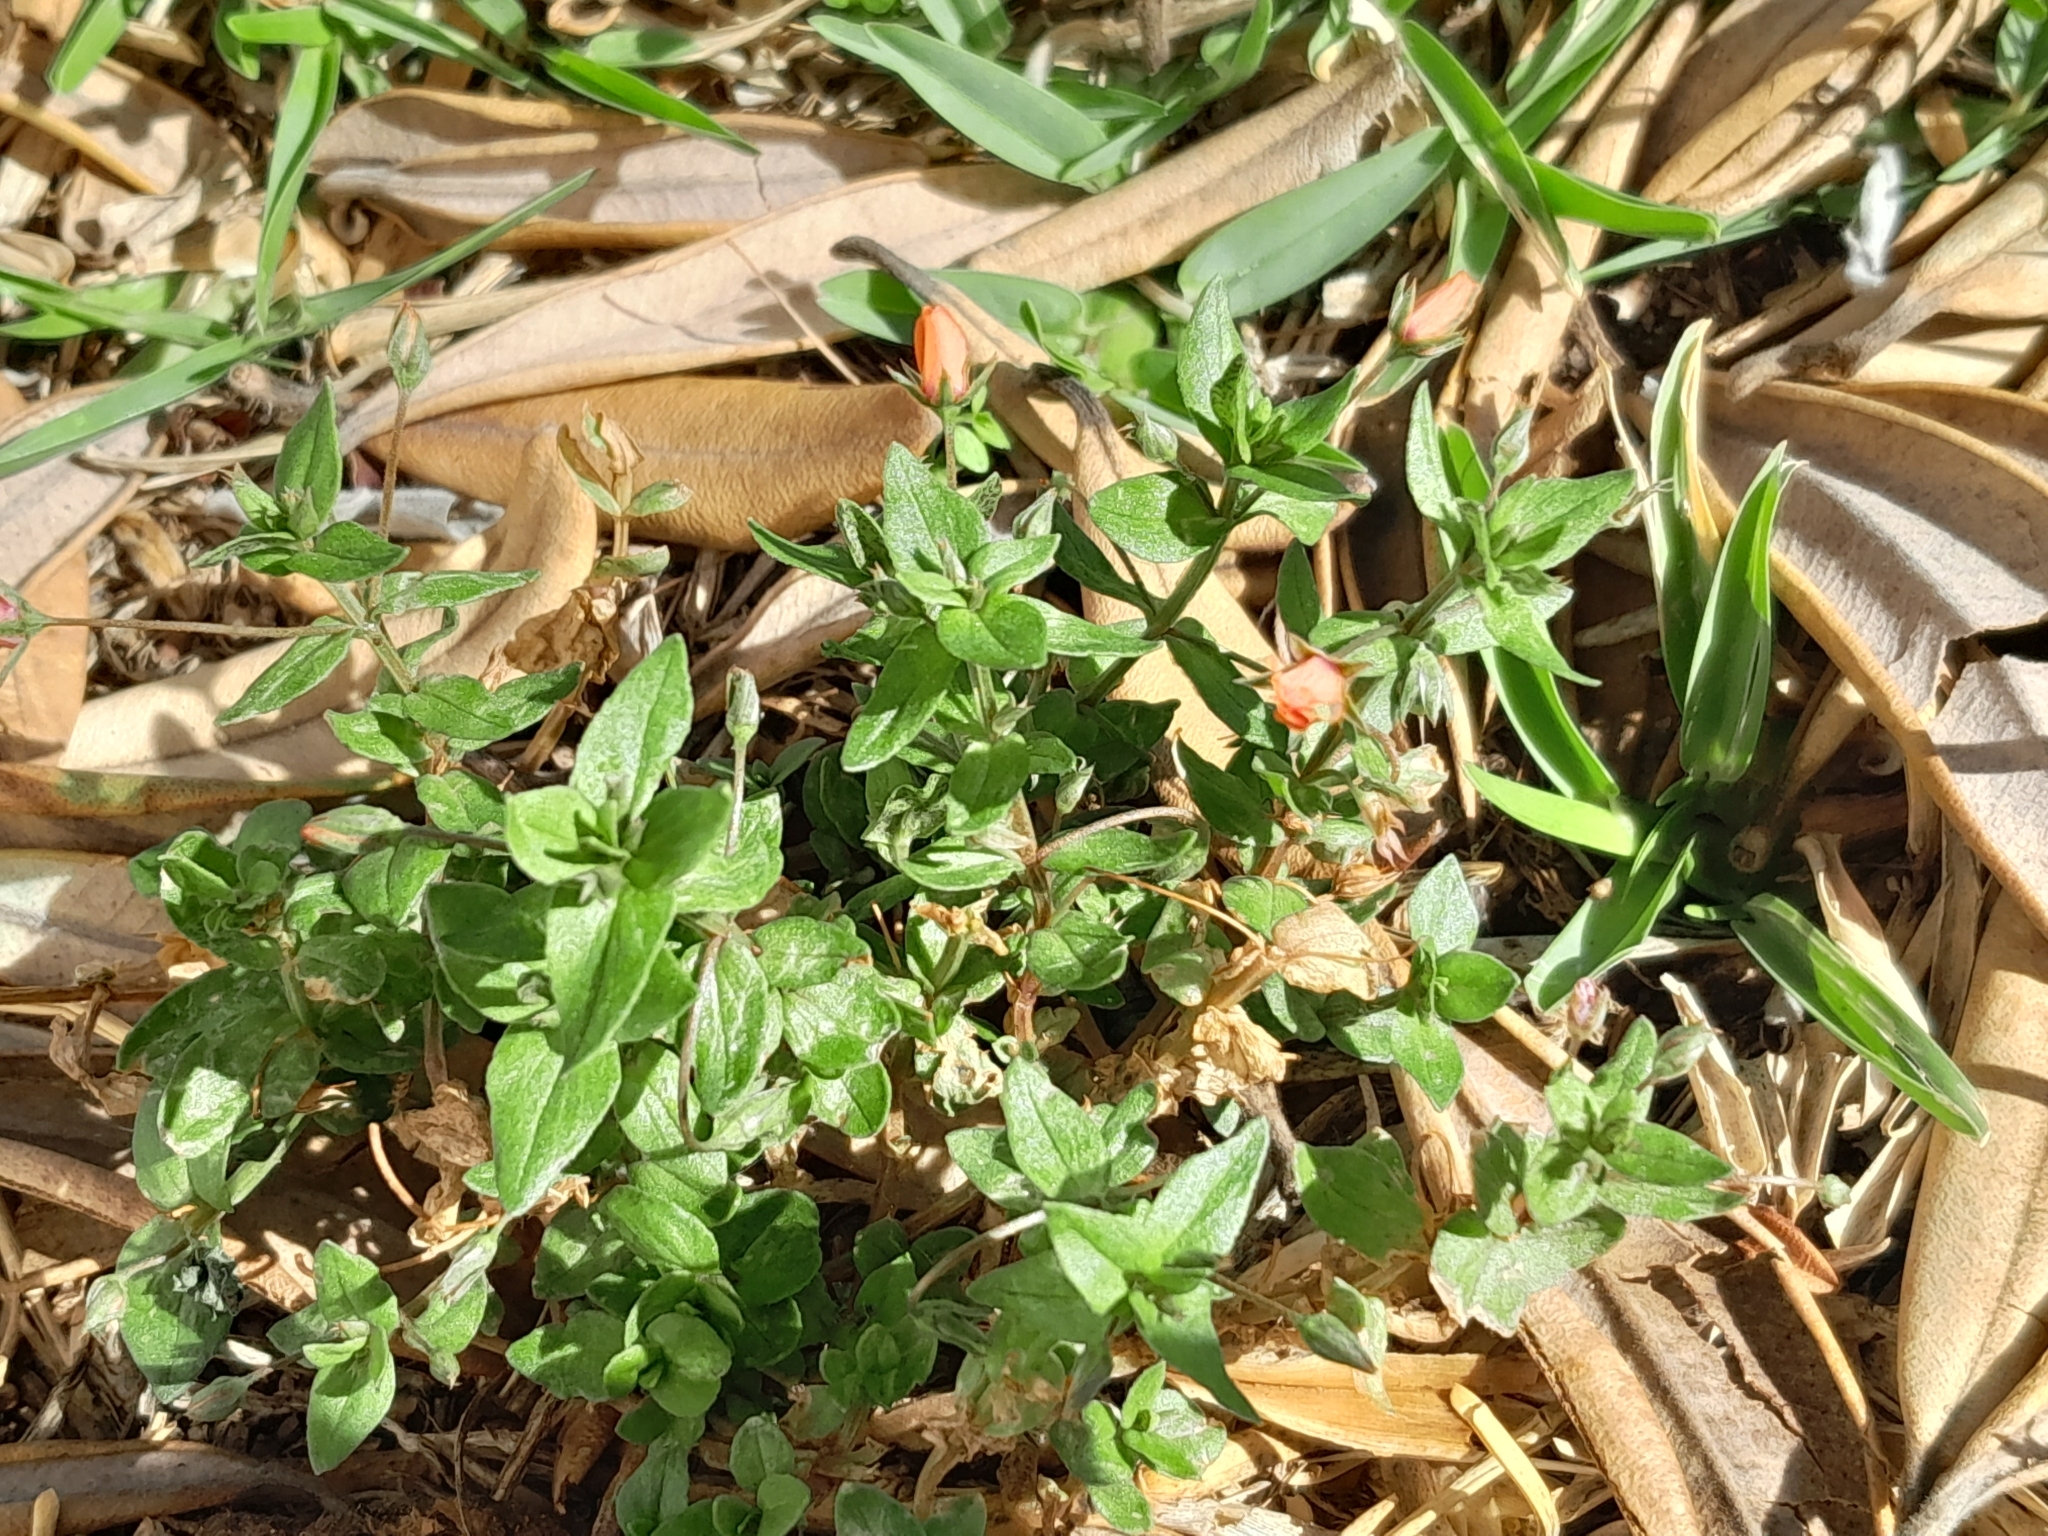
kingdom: Plantae
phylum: Tracheophyta
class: Magnoliopsida
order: Ericales
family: Primulaceae
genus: Lysimachia
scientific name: Lysimachia arvensis
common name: Scarlet pimpernel
